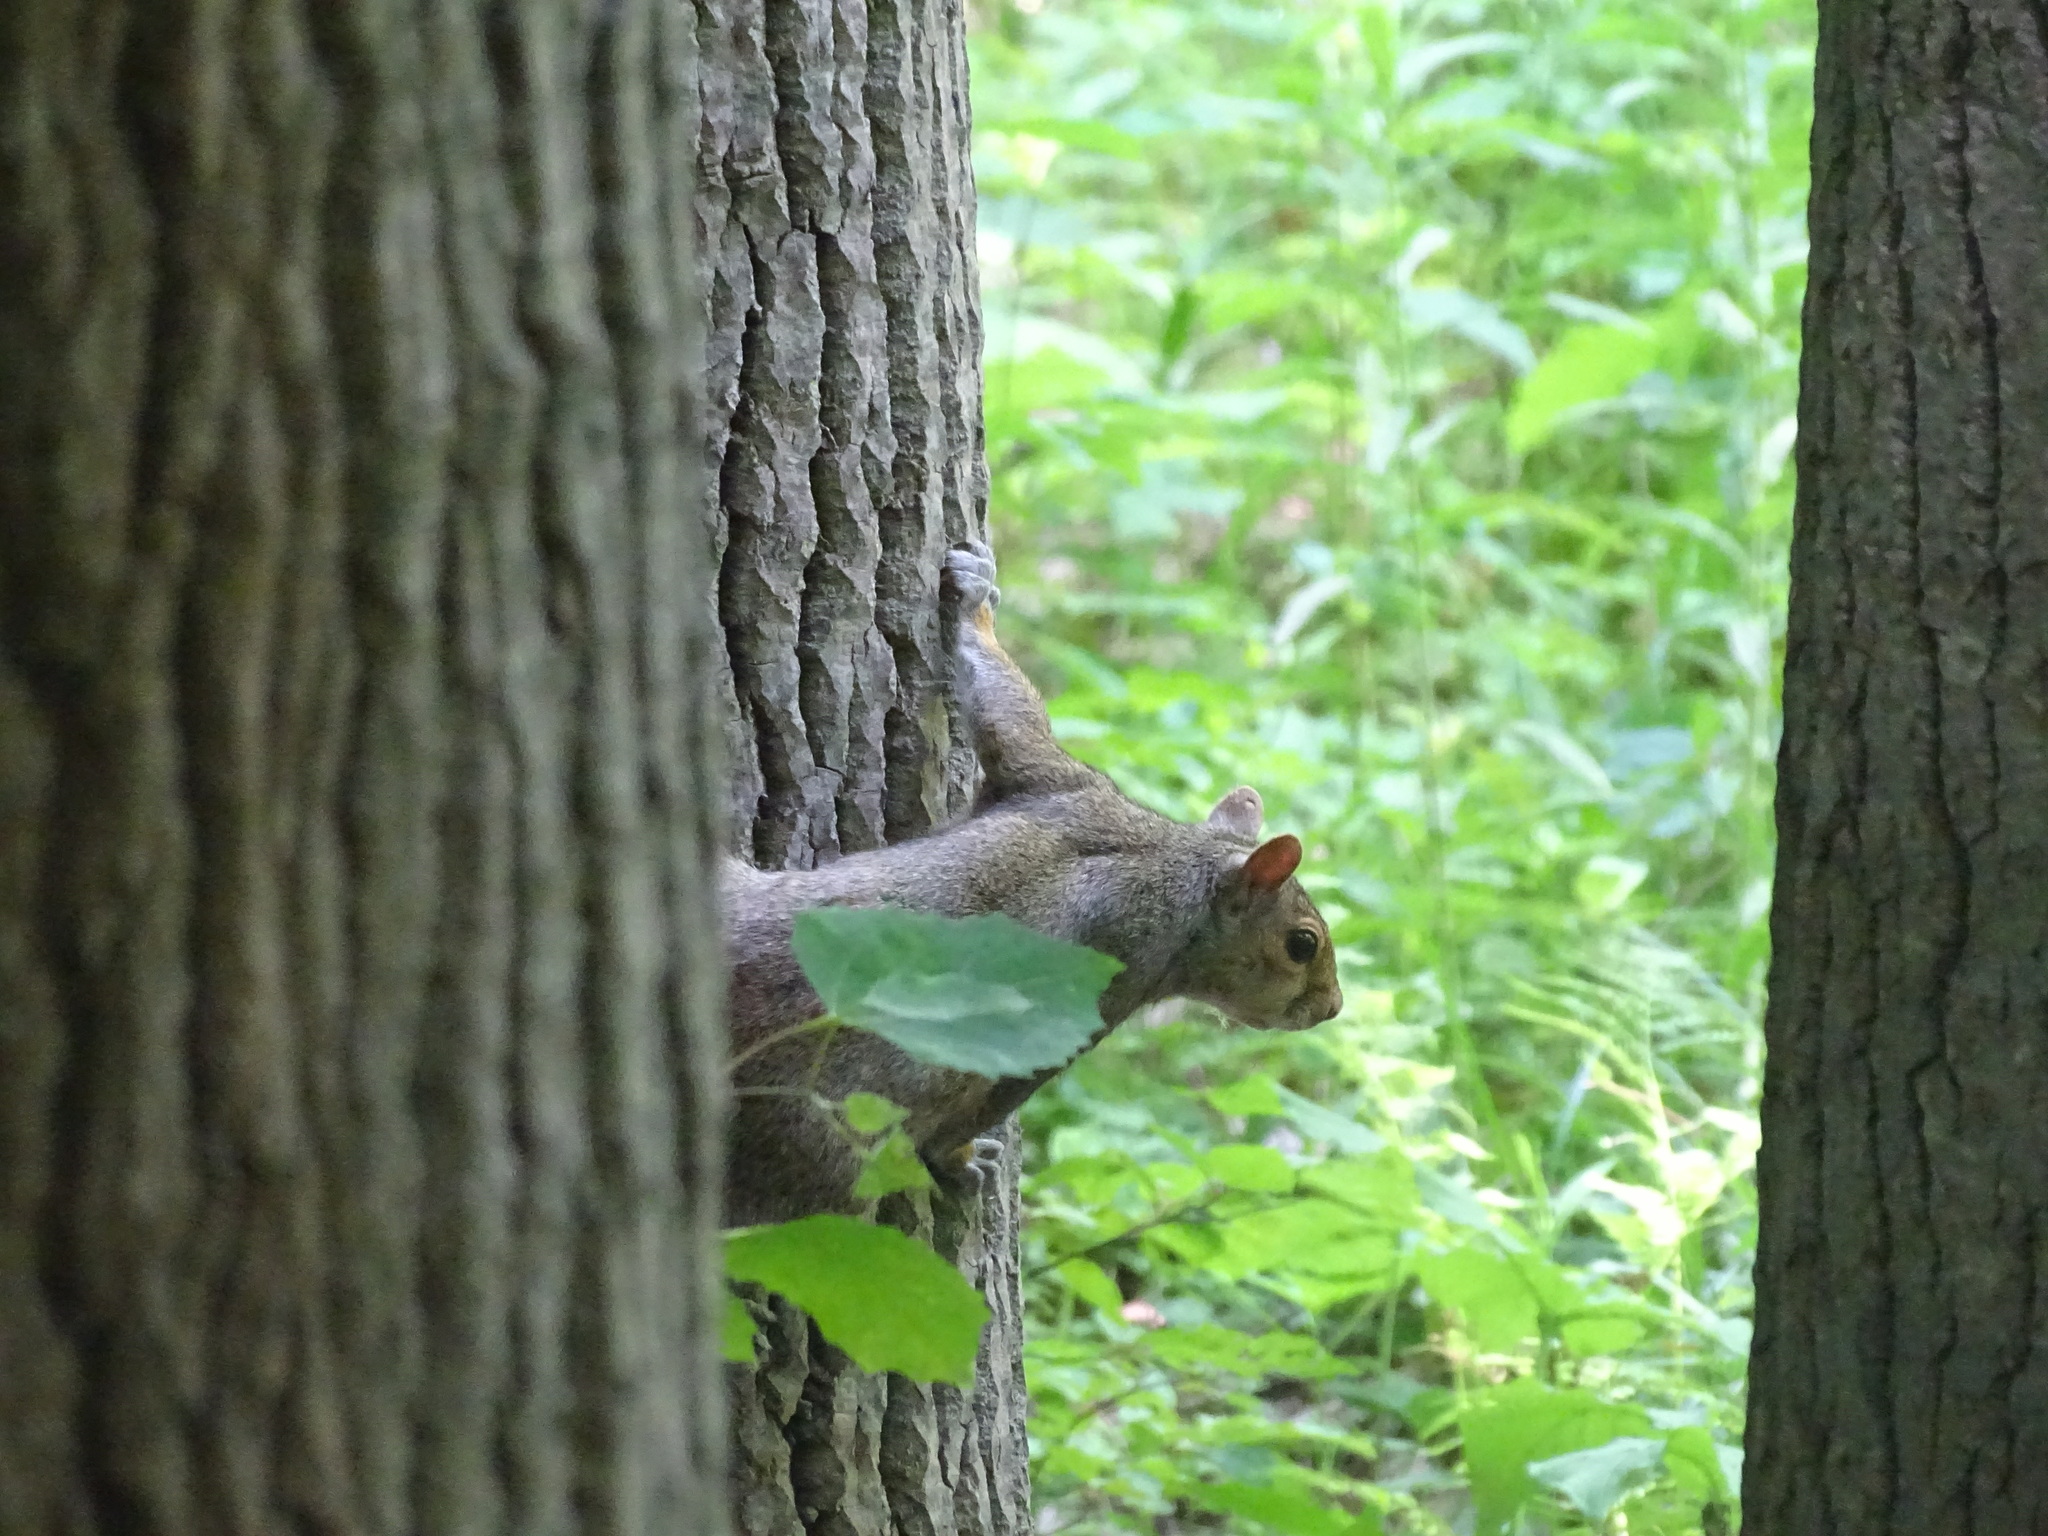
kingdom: Animalia
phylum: Chordata
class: Mammalia
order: Rodentia
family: Sciuridae
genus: Sciurus
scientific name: Sciurus carolinensis
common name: Eastern gray squirrel
